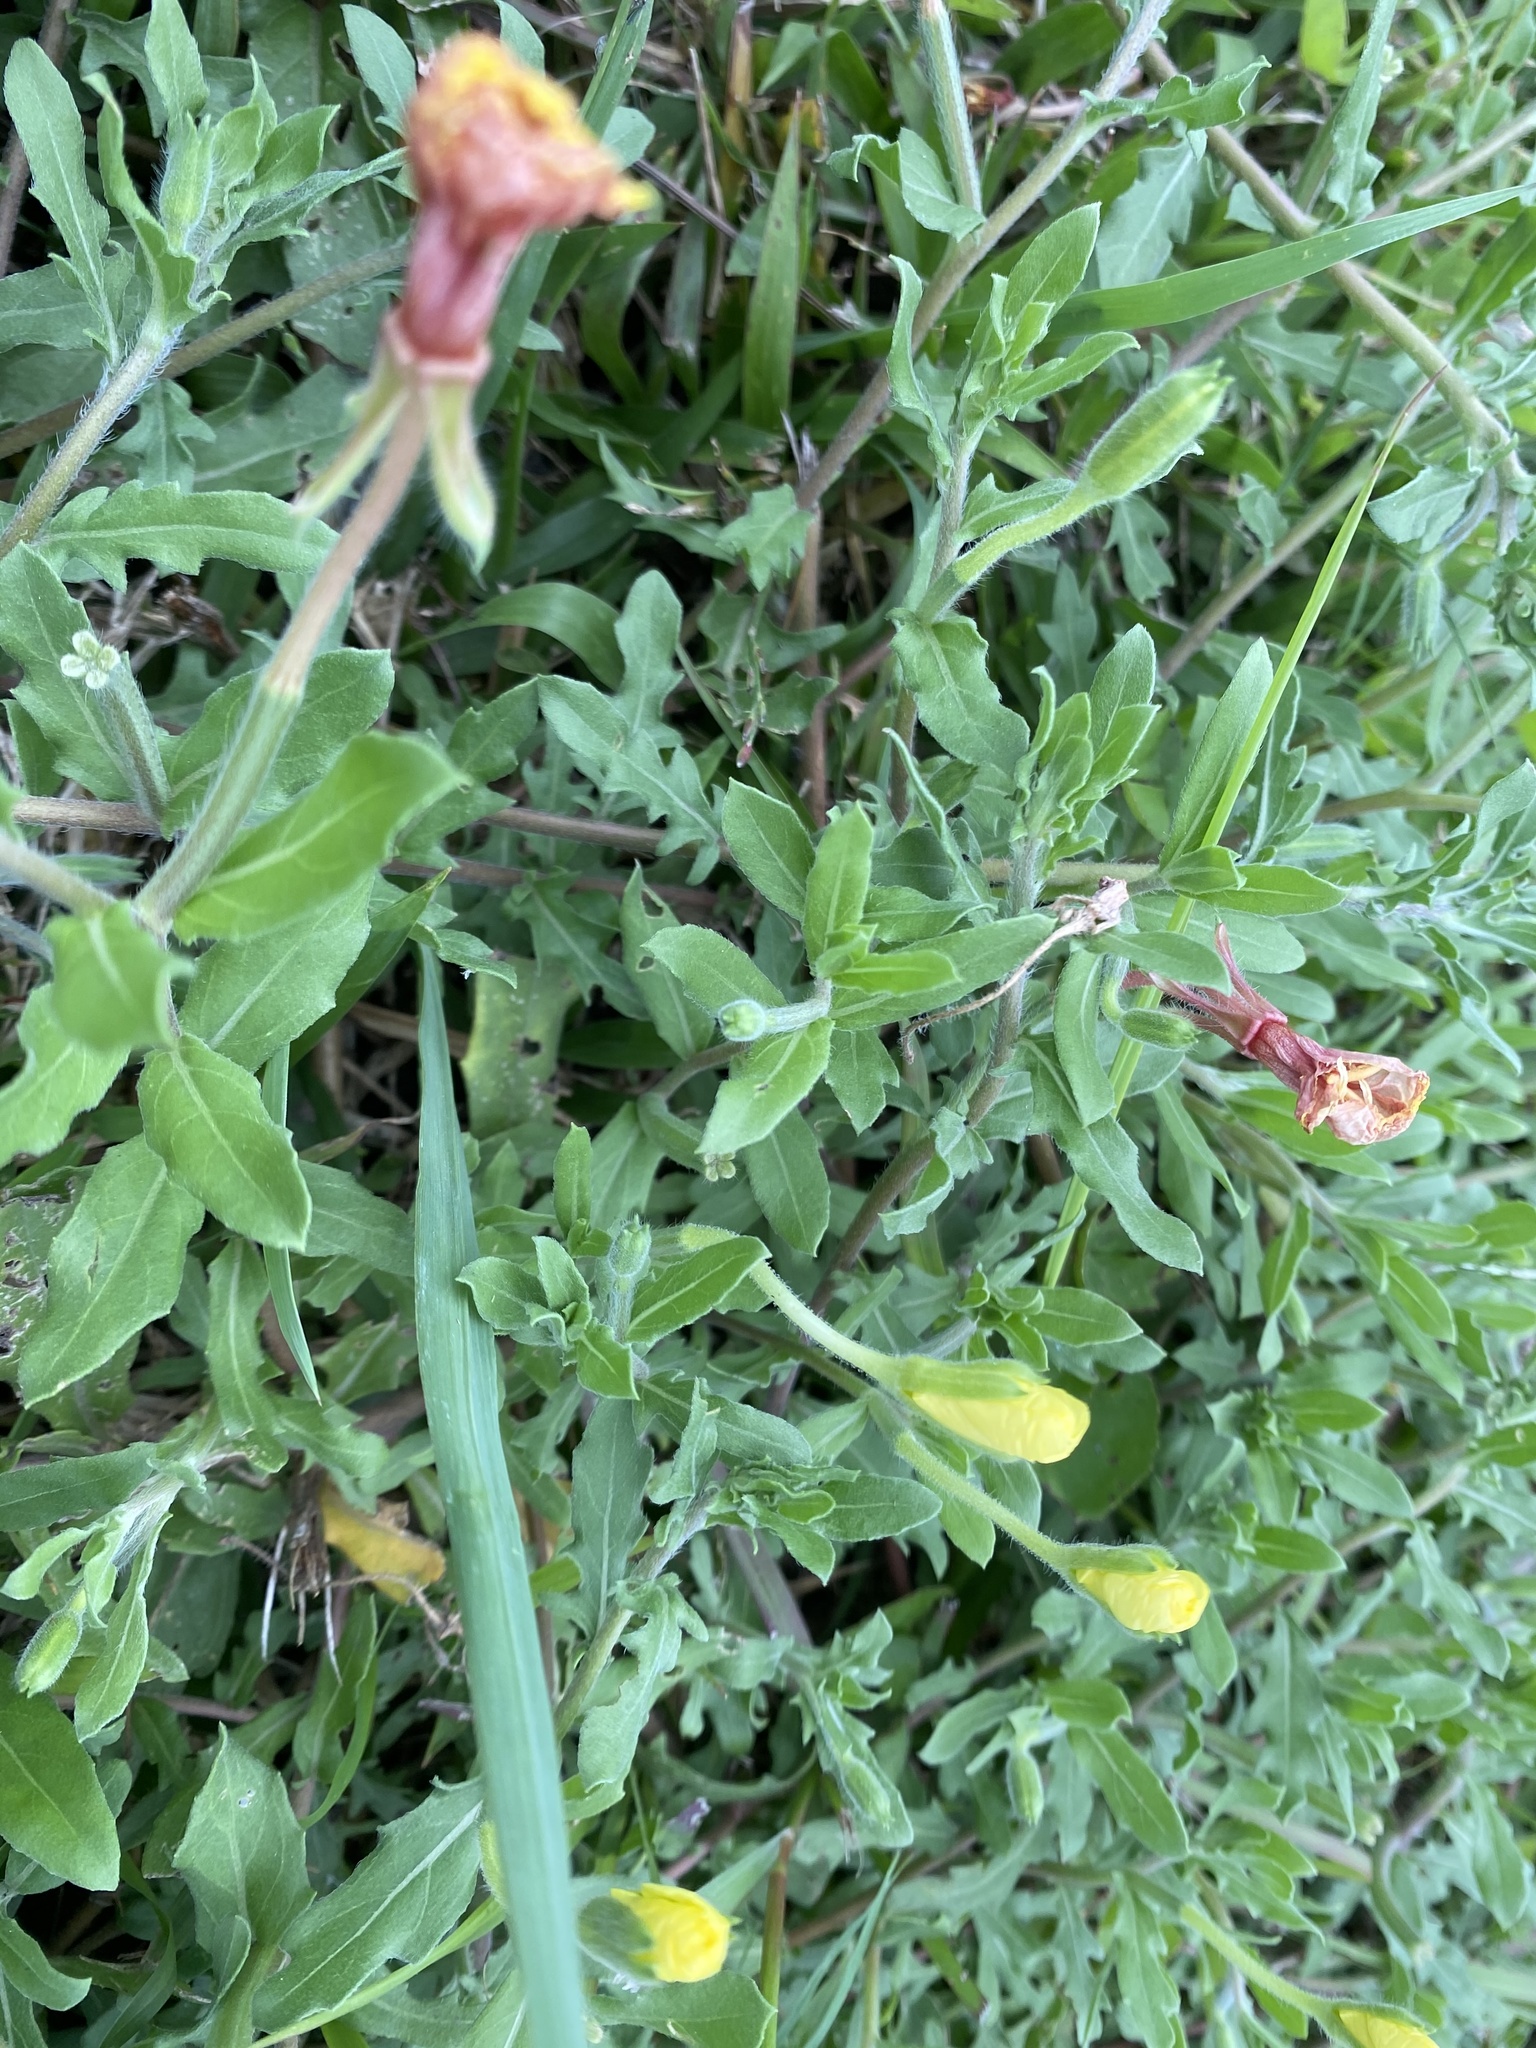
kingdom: Plantae
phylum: Tracheophyta
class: Magnoliopsida
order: Myrtales
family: Onagraceae
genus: Oenothera
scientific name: Oenothera laciniata
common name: Cut-leaved evening-primrose
